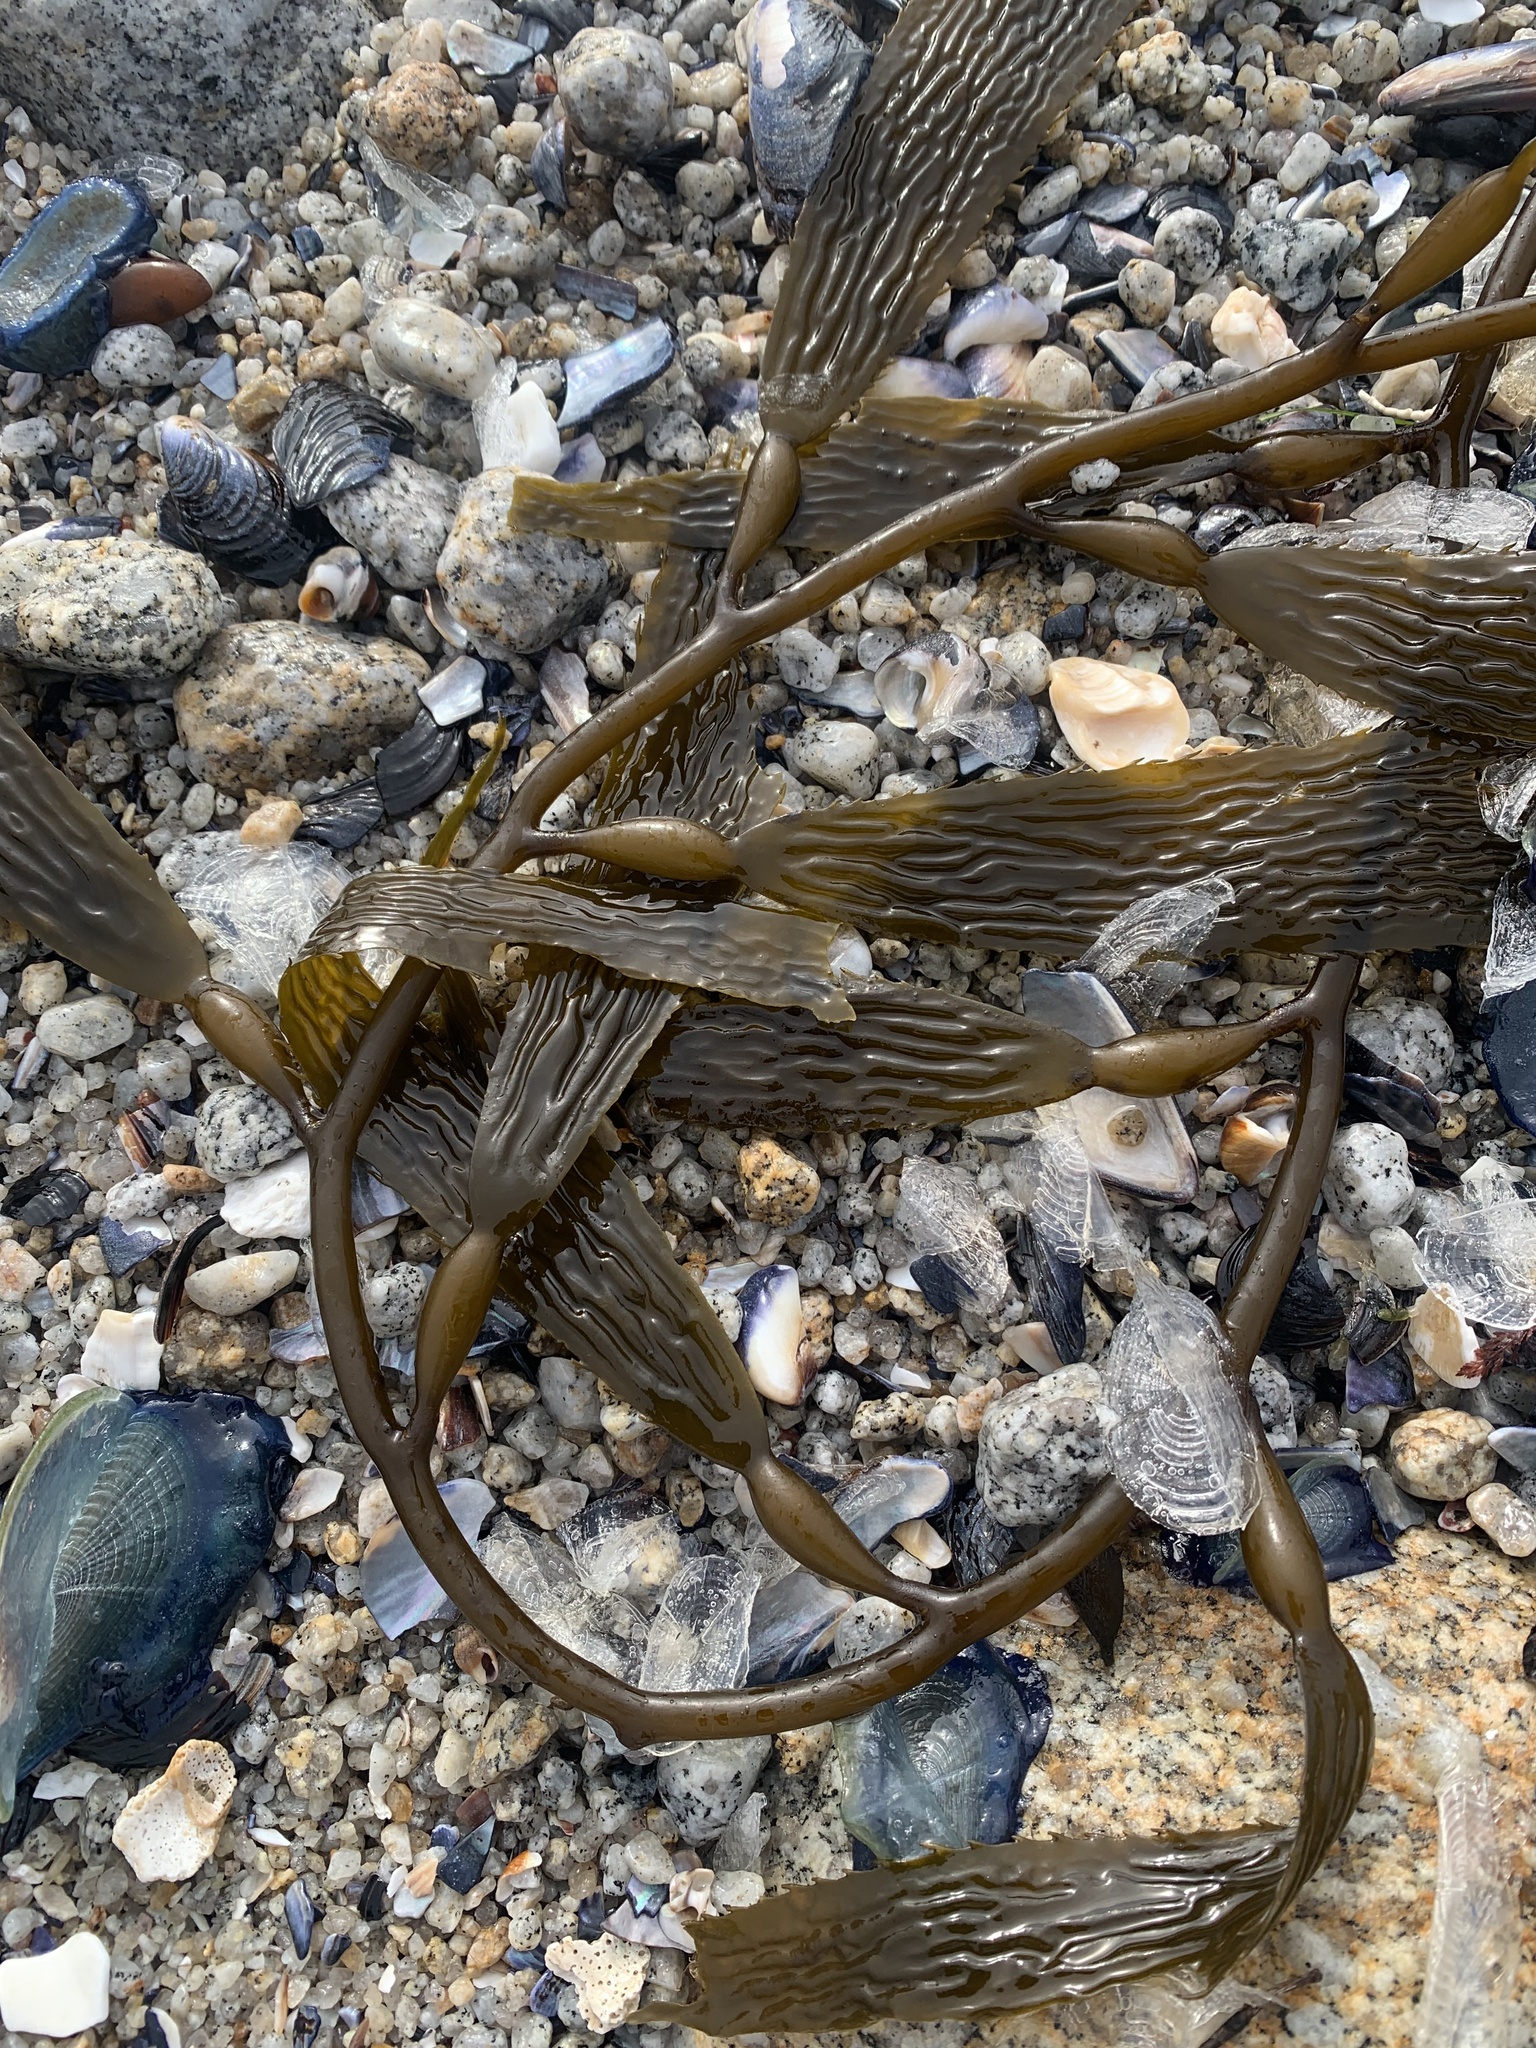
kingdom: Chromista
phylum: Ochrophyta
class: Phaeophyceae
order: Laminariales
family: Laminariaceae
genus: Macrocystis
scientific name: Macrocystis pyrifera
